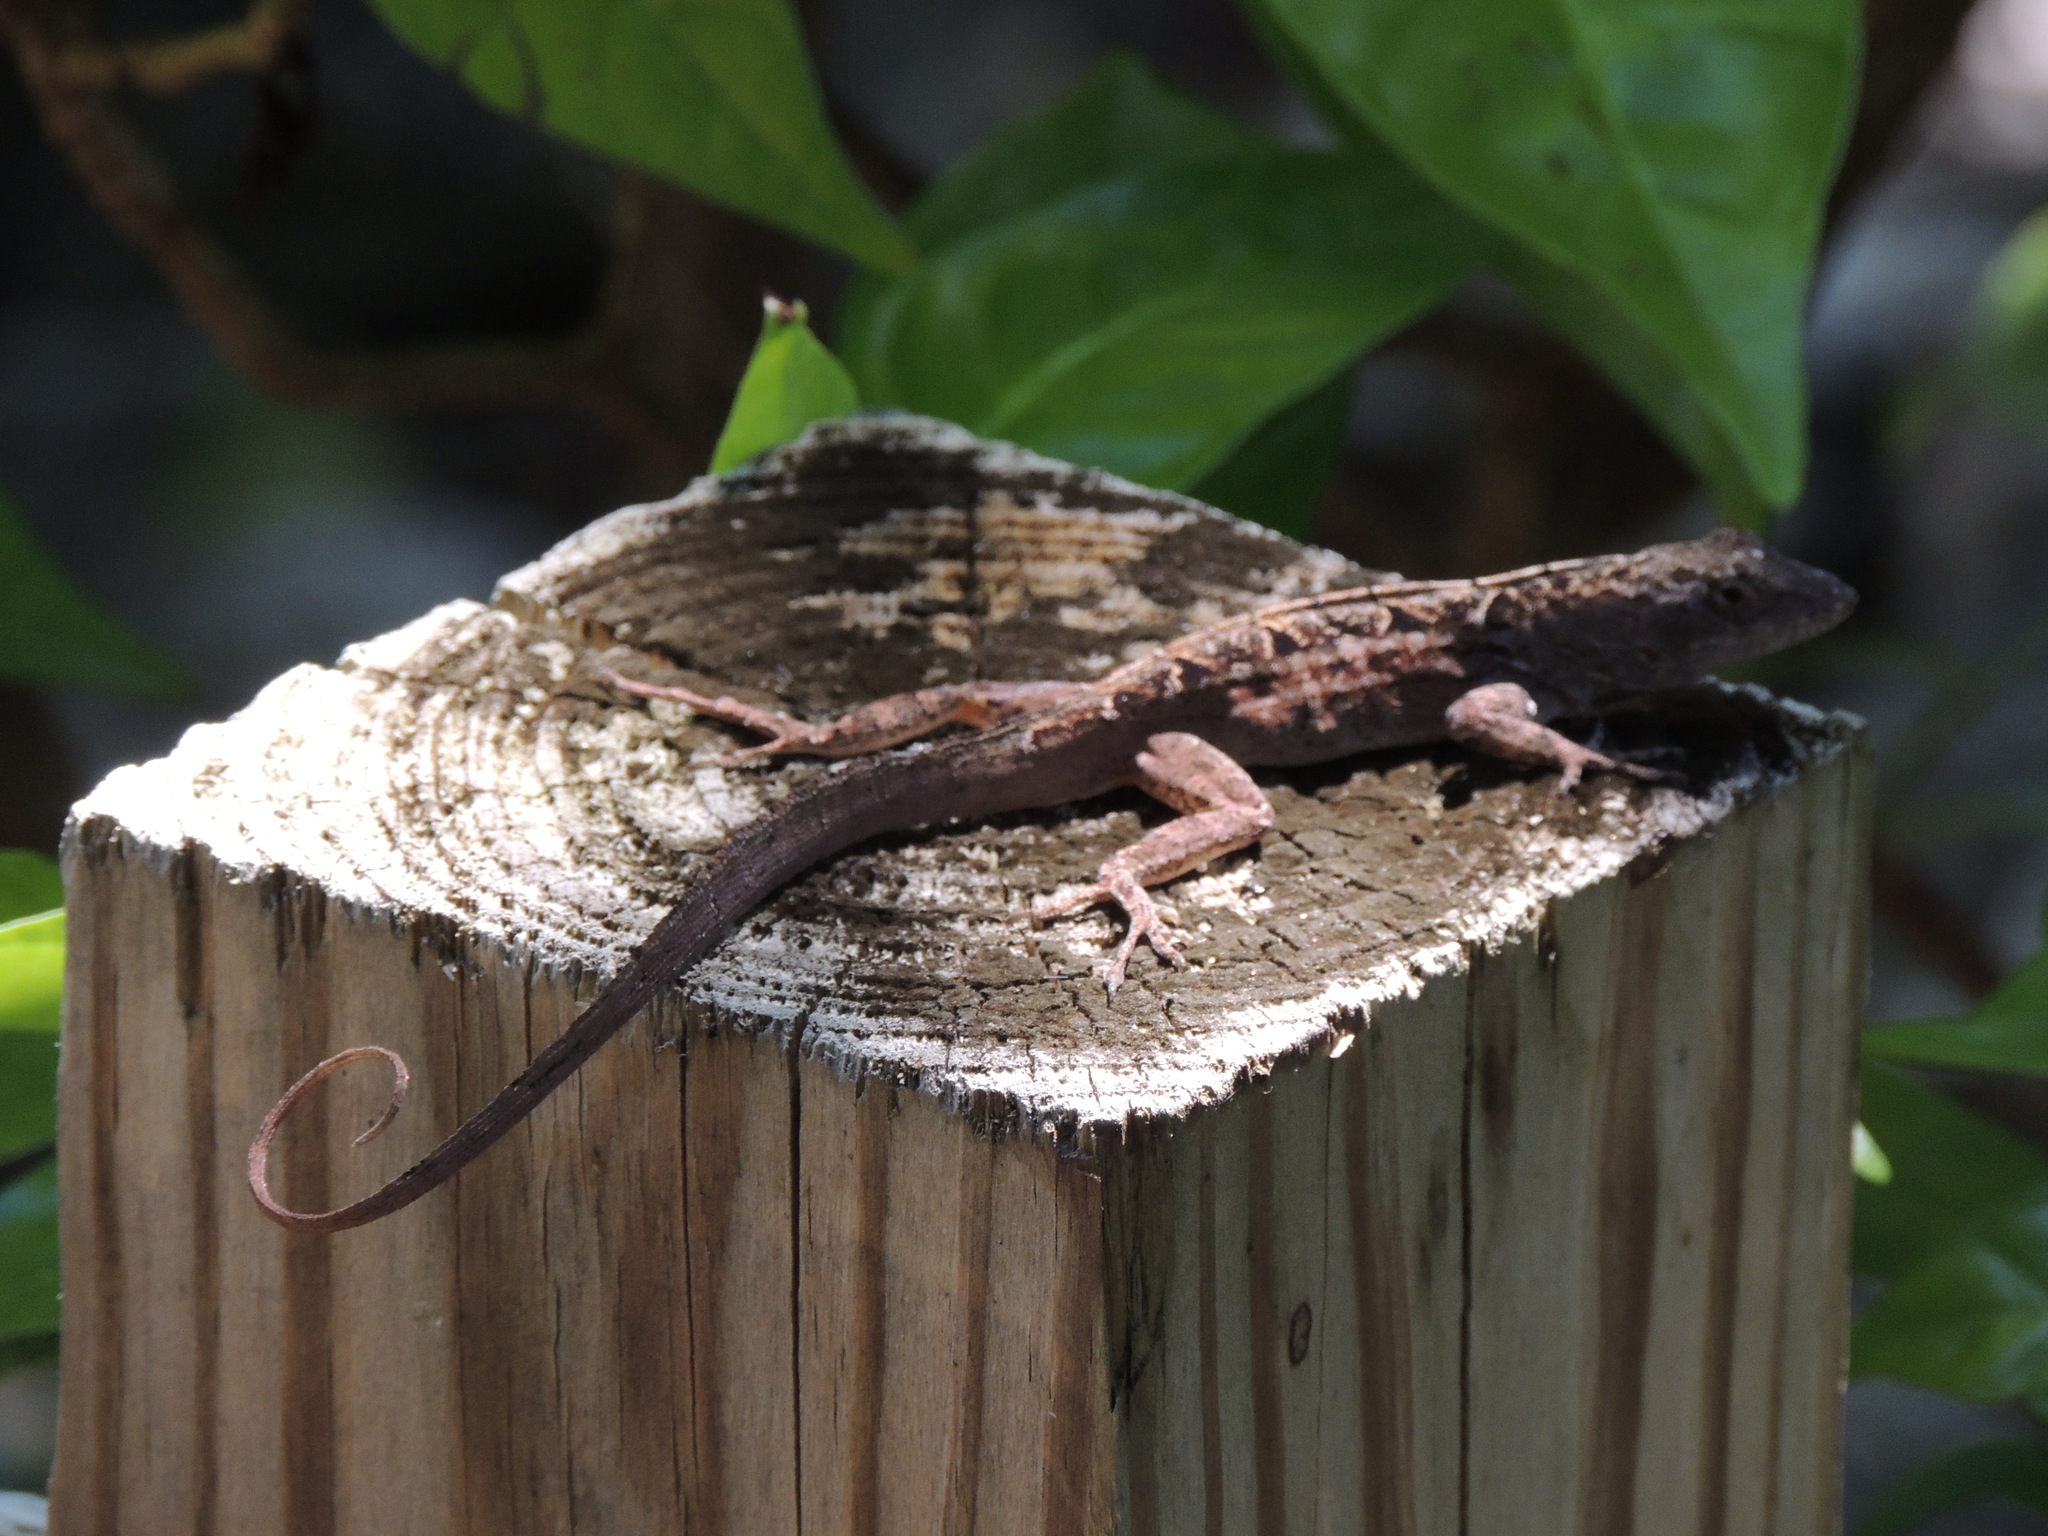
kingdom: Animalia
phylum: Chordata
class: Squamata
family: Dactyloidae
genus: Anolis
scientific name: Anolis sagrei
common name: Brown anole
